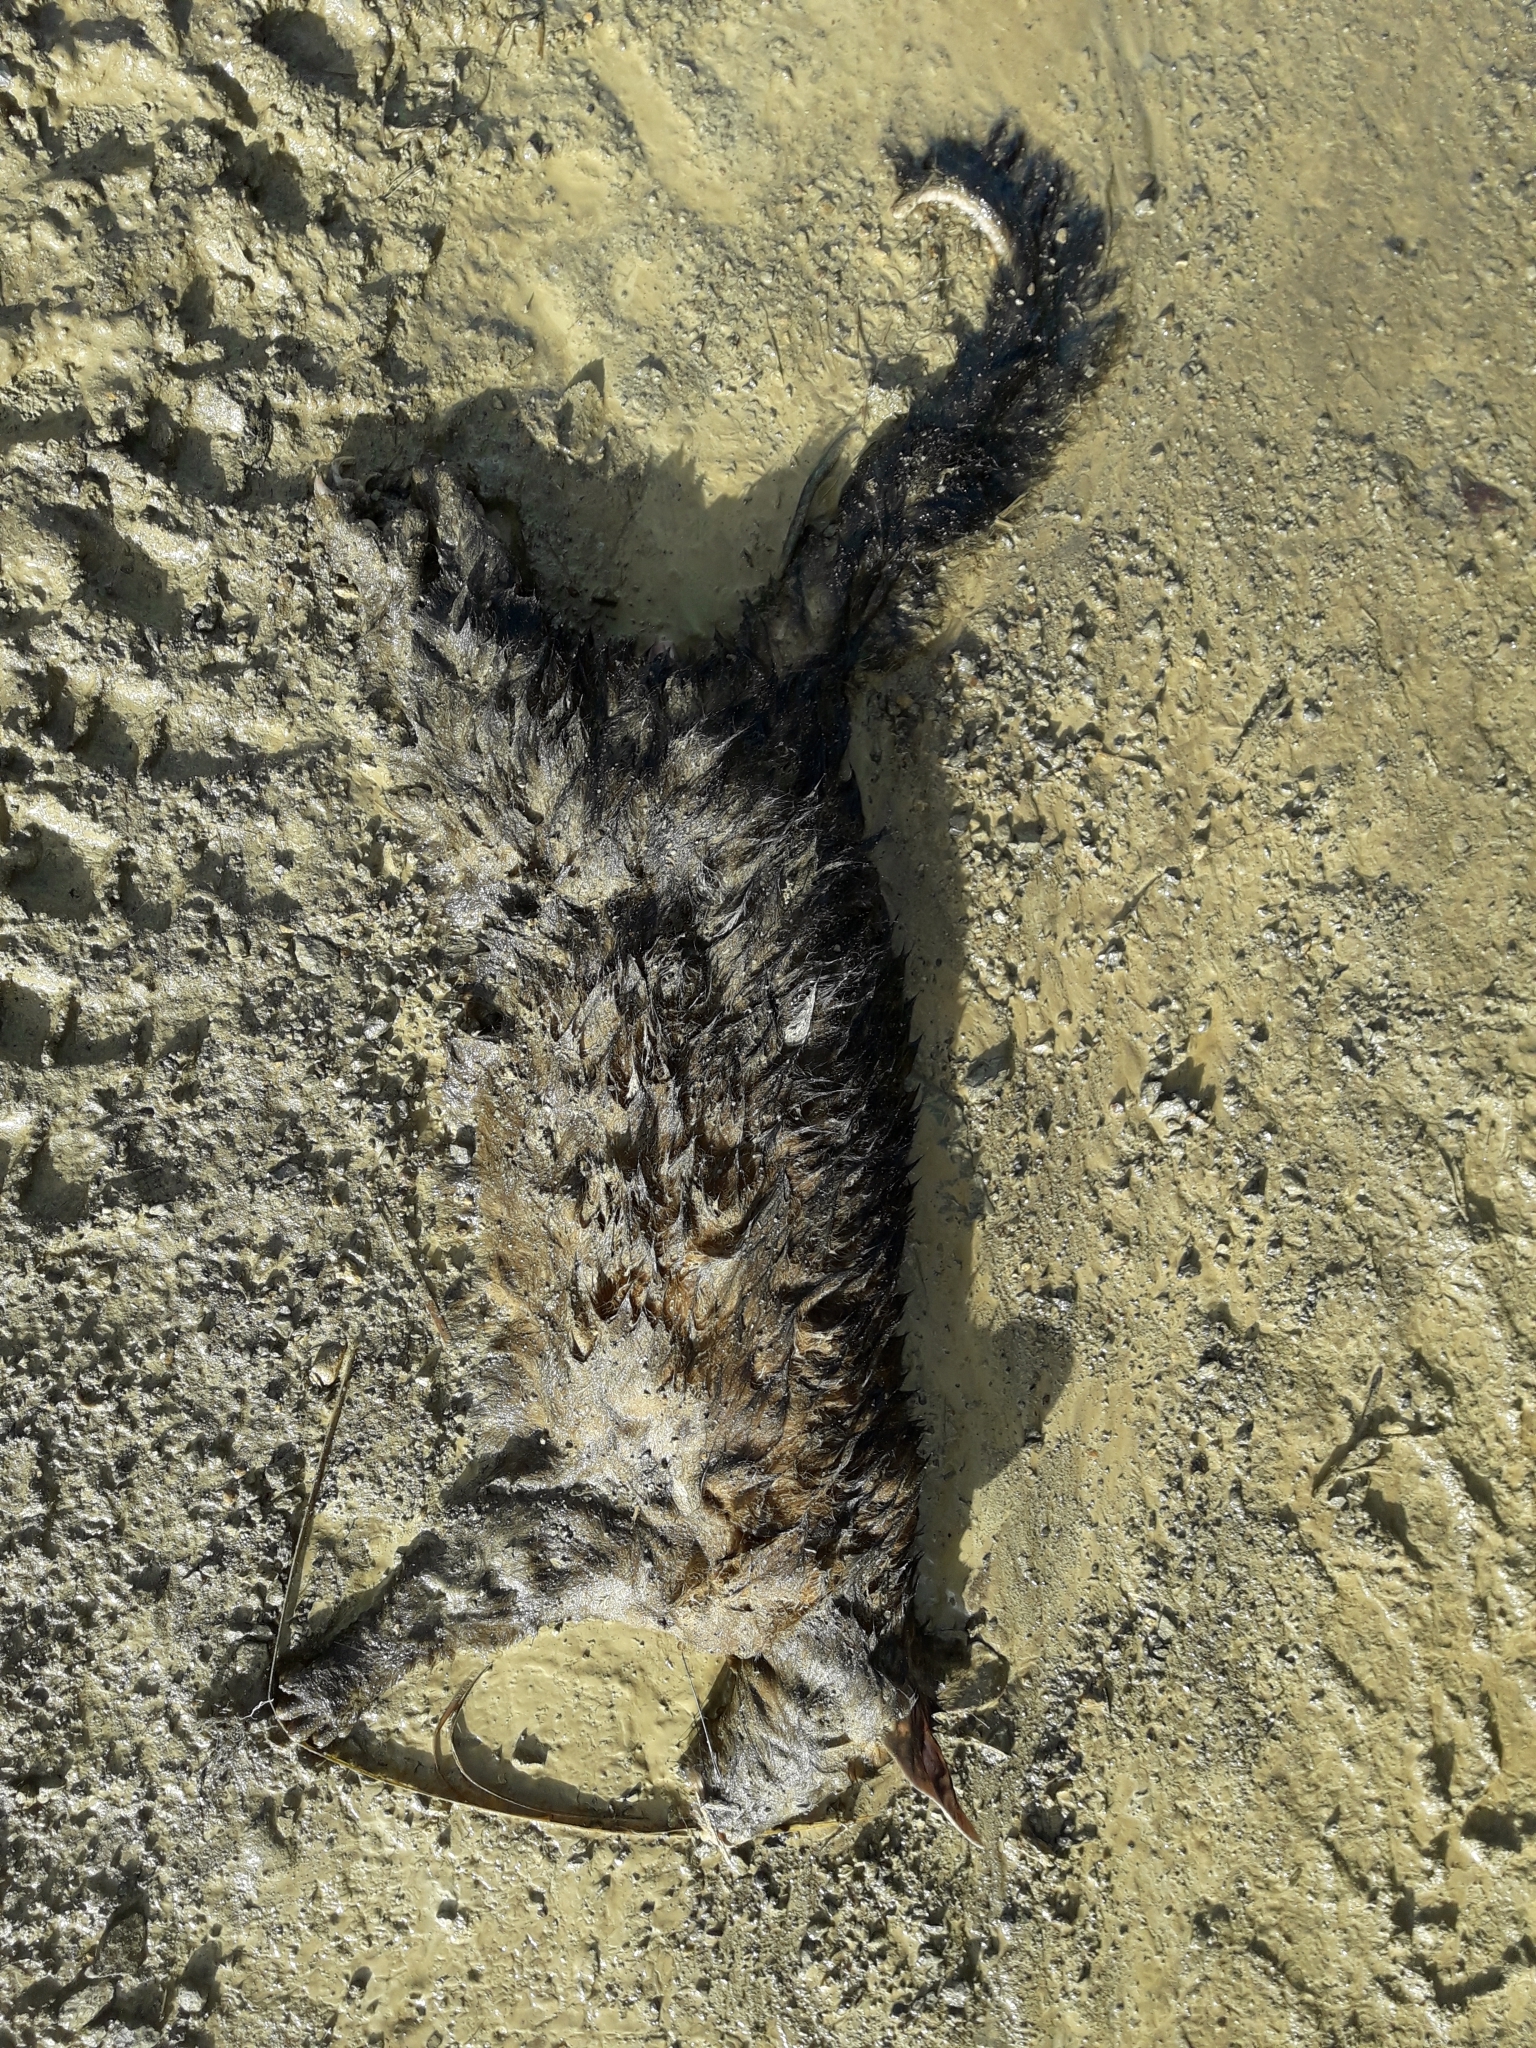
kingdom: Animalia
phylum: Chordata
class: Mammalia
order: Diprotodontia
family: Phalangeridae
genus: Trichosurus
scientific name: Trichosurus vulpecula
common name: Common brushtail
